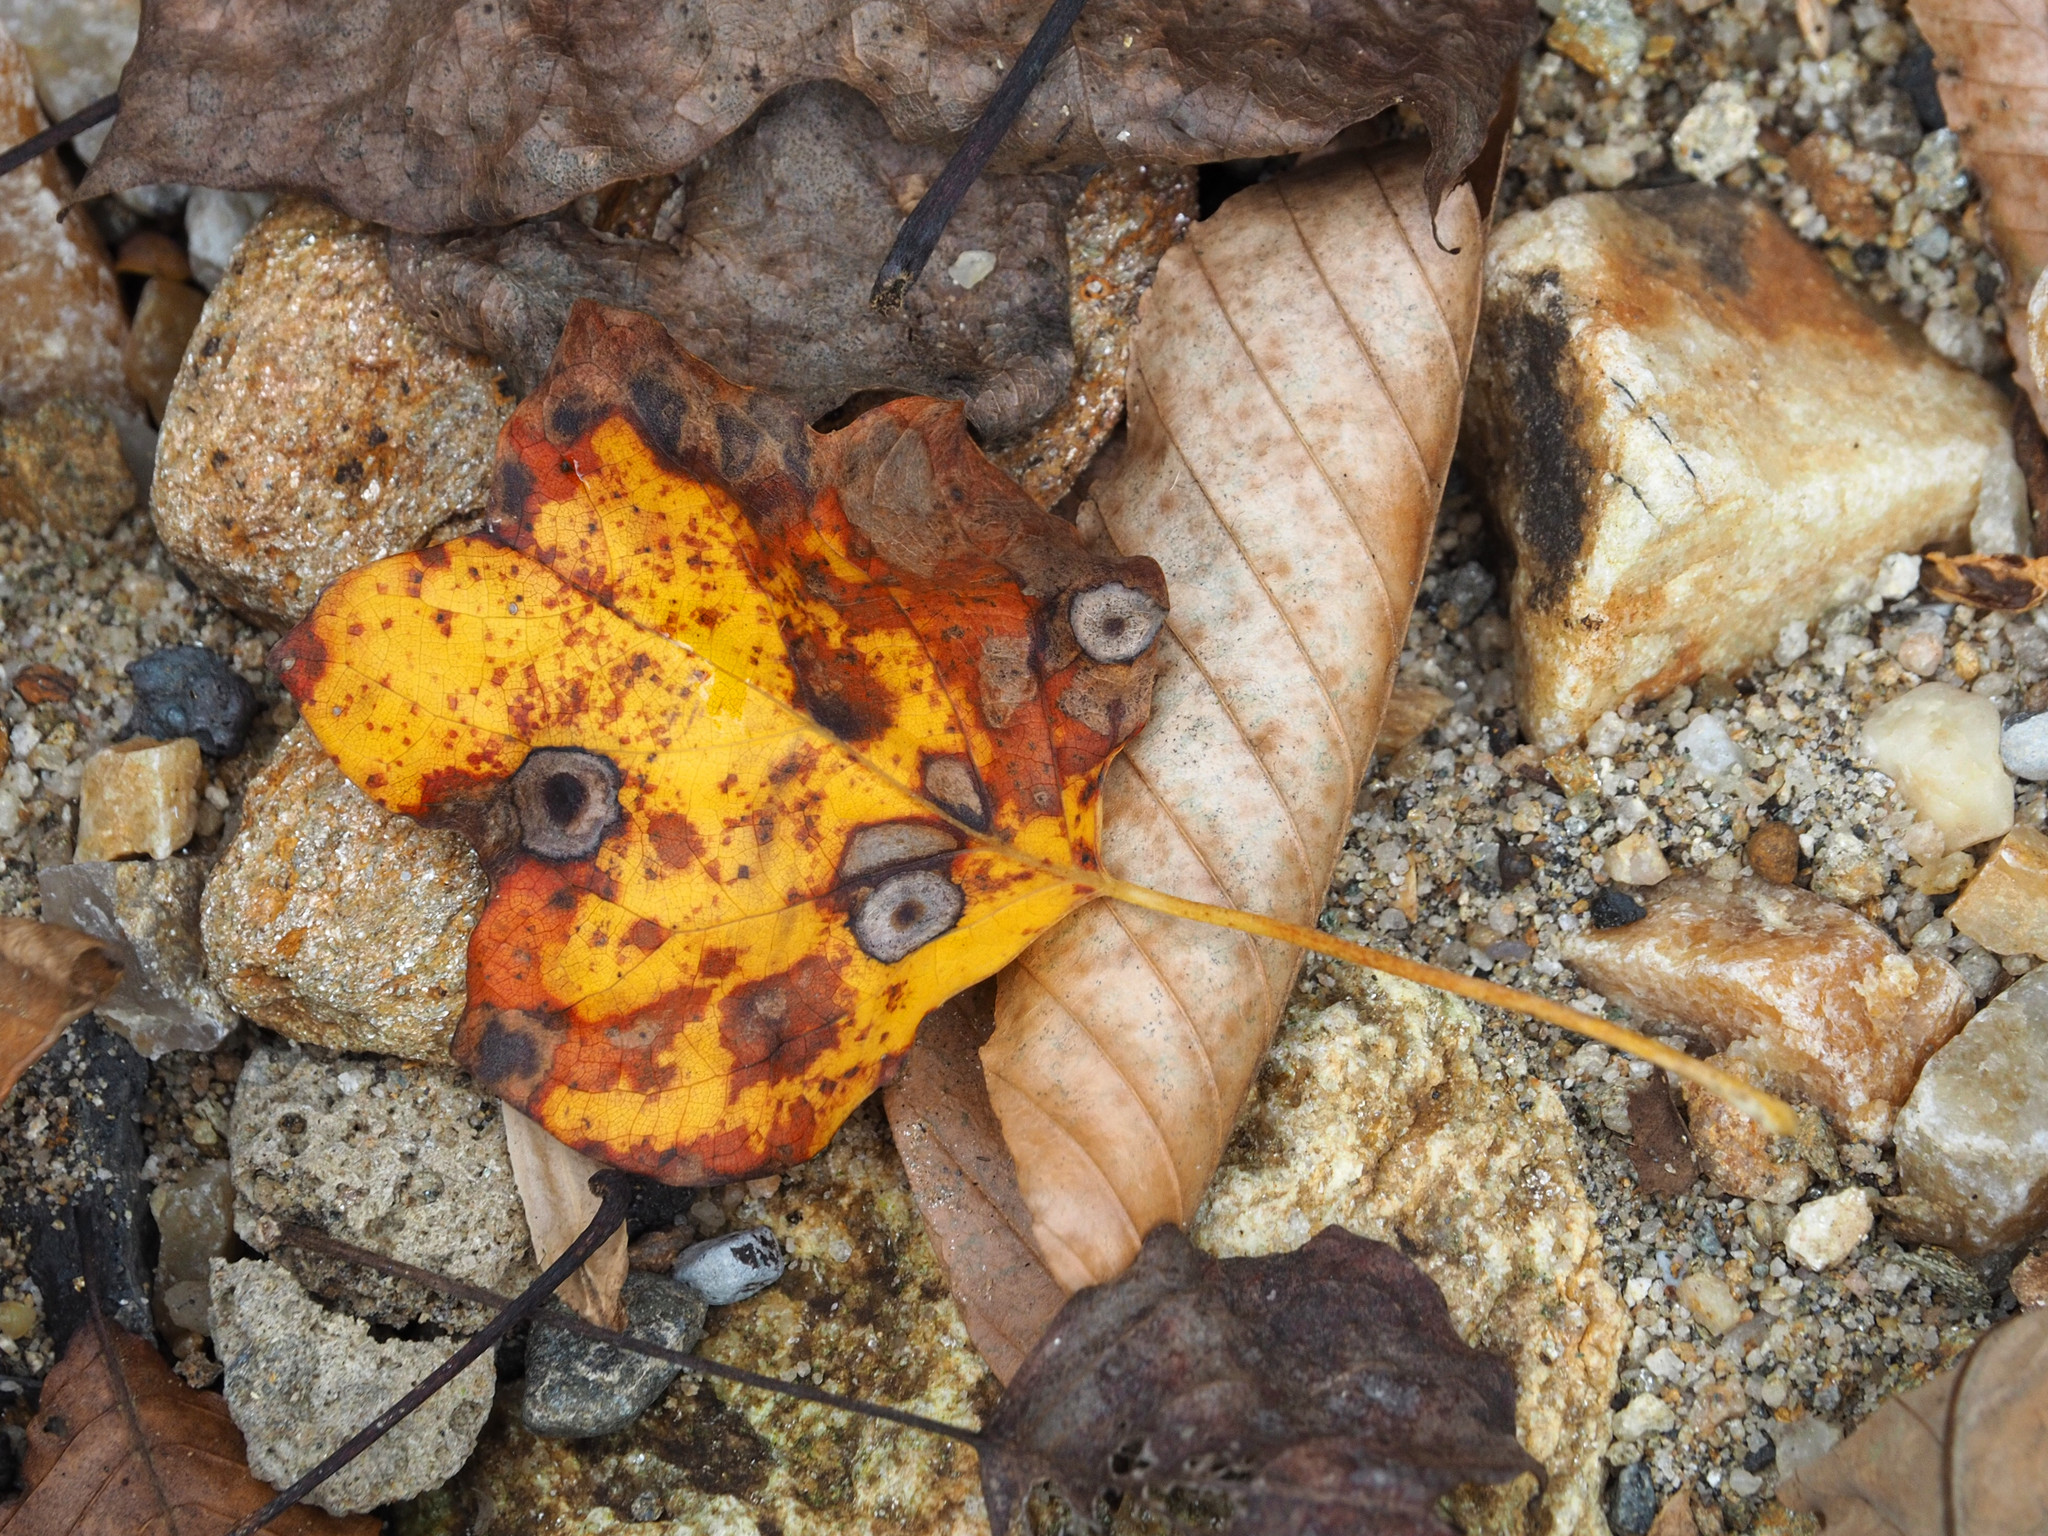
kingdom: Plantae
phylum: Tracheophyta
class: Magnoliopsida
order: Magnoliales
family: Magnoliaceae
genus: Liriodendron
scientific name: Liriodendron tulipifera
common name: Tulip tree
